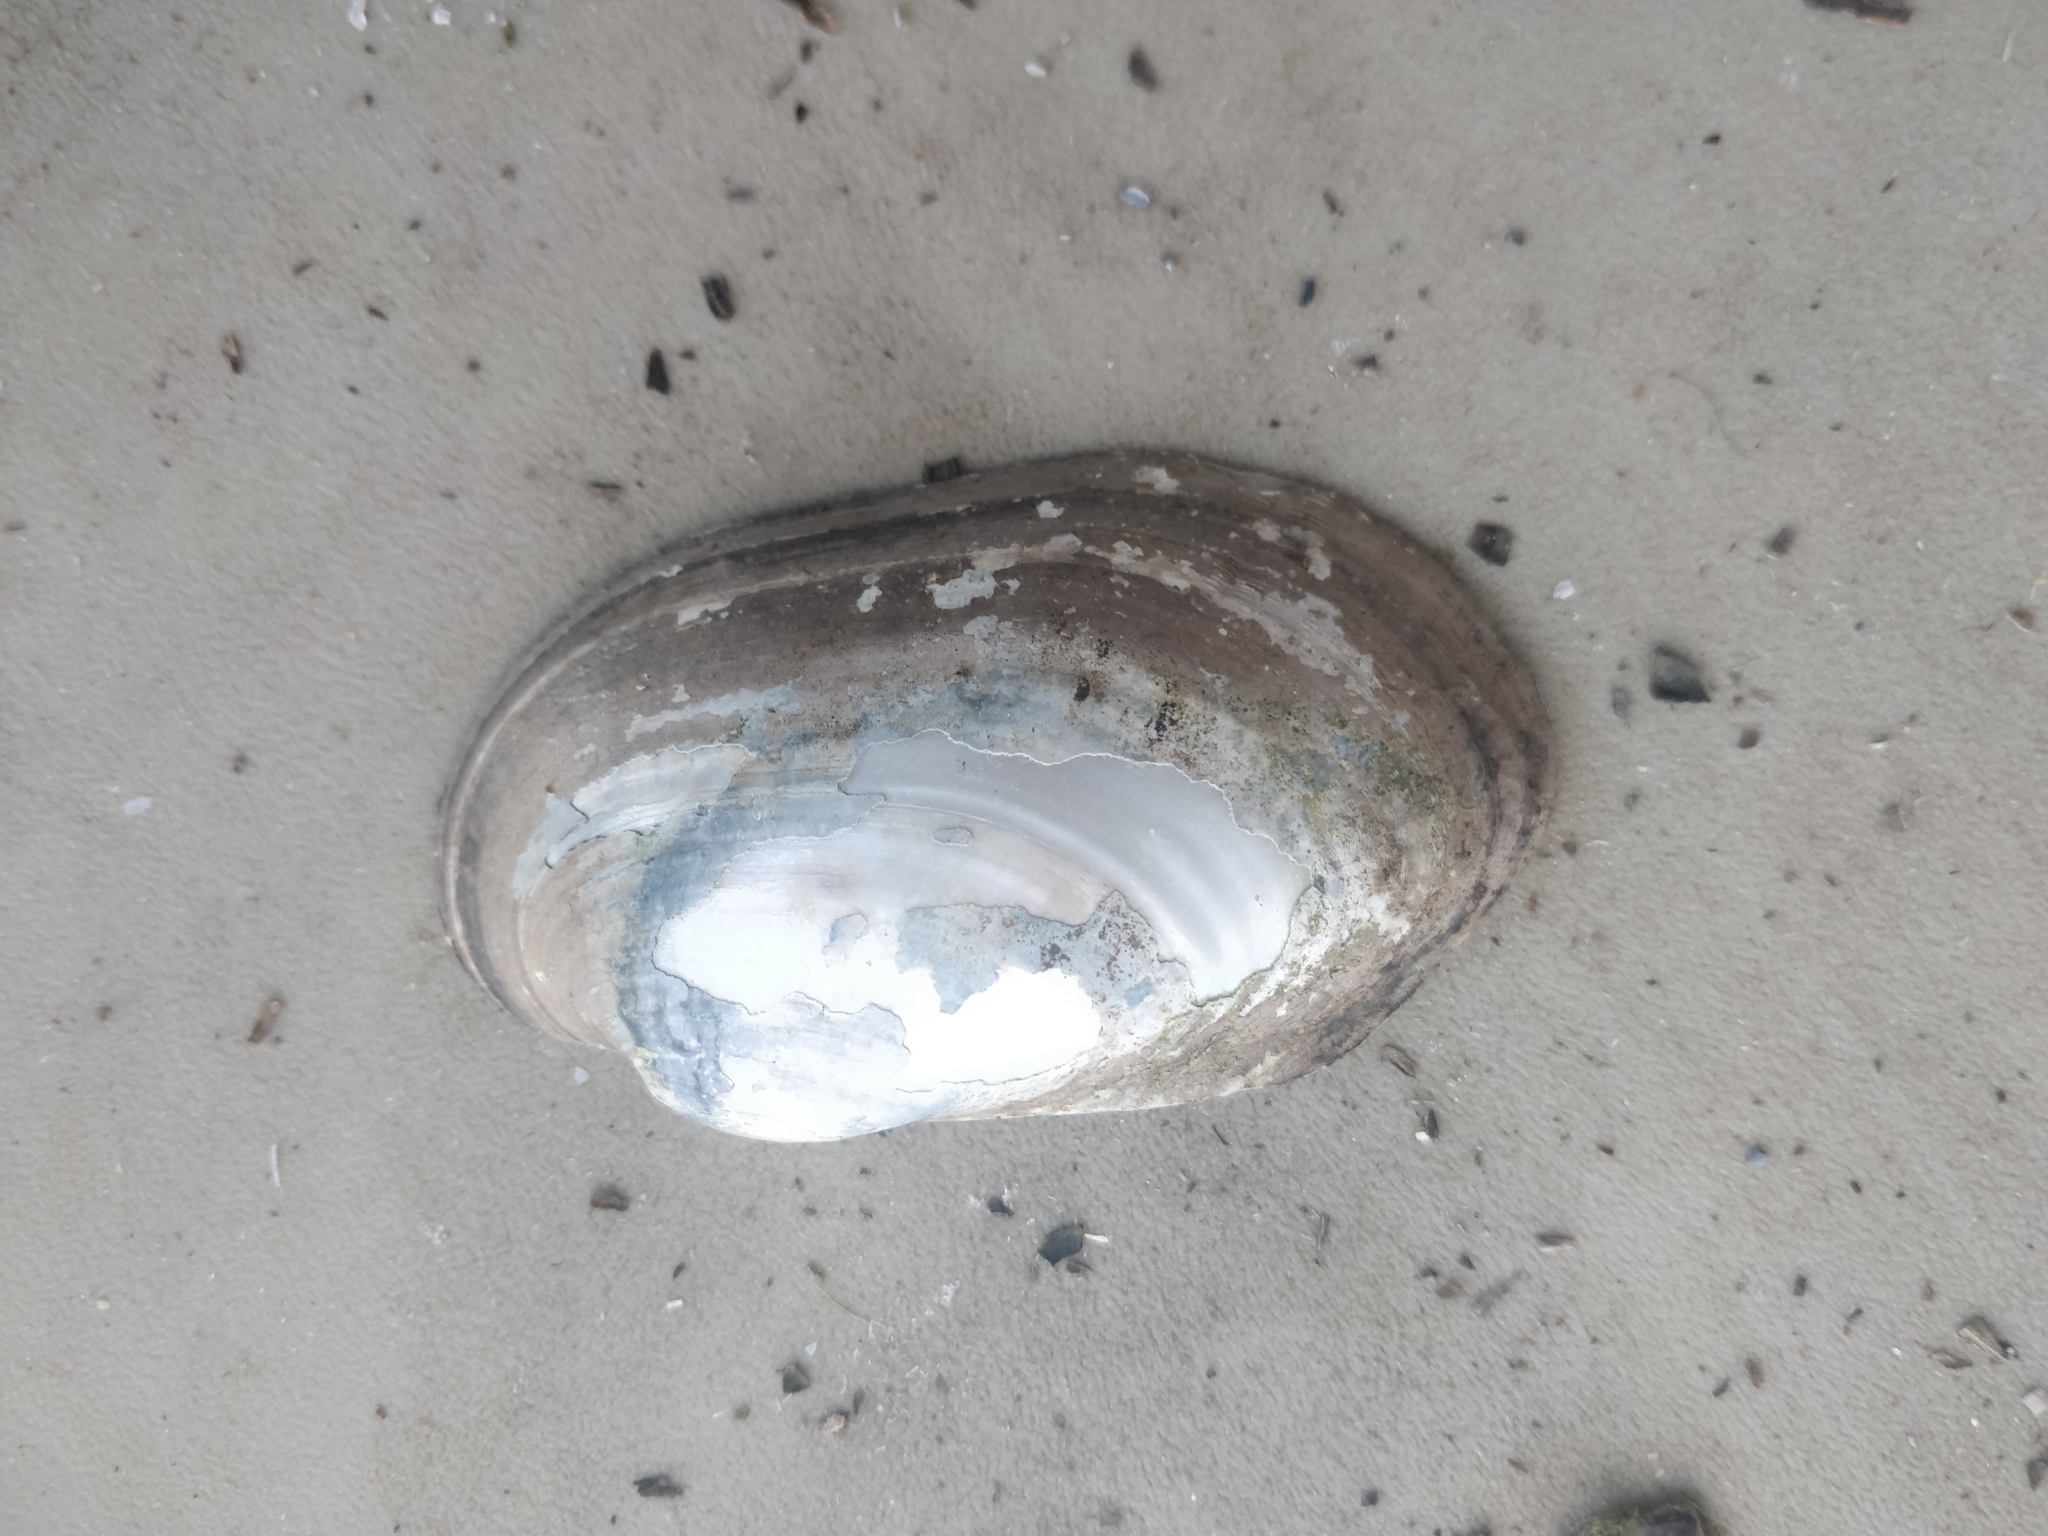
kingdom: Animalia
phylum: Mollusca
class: Bivalvia
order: Unionida
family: Unionidae
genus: Lampsilis
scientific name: Lampsilis siliquoidea
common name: Fatmucket
